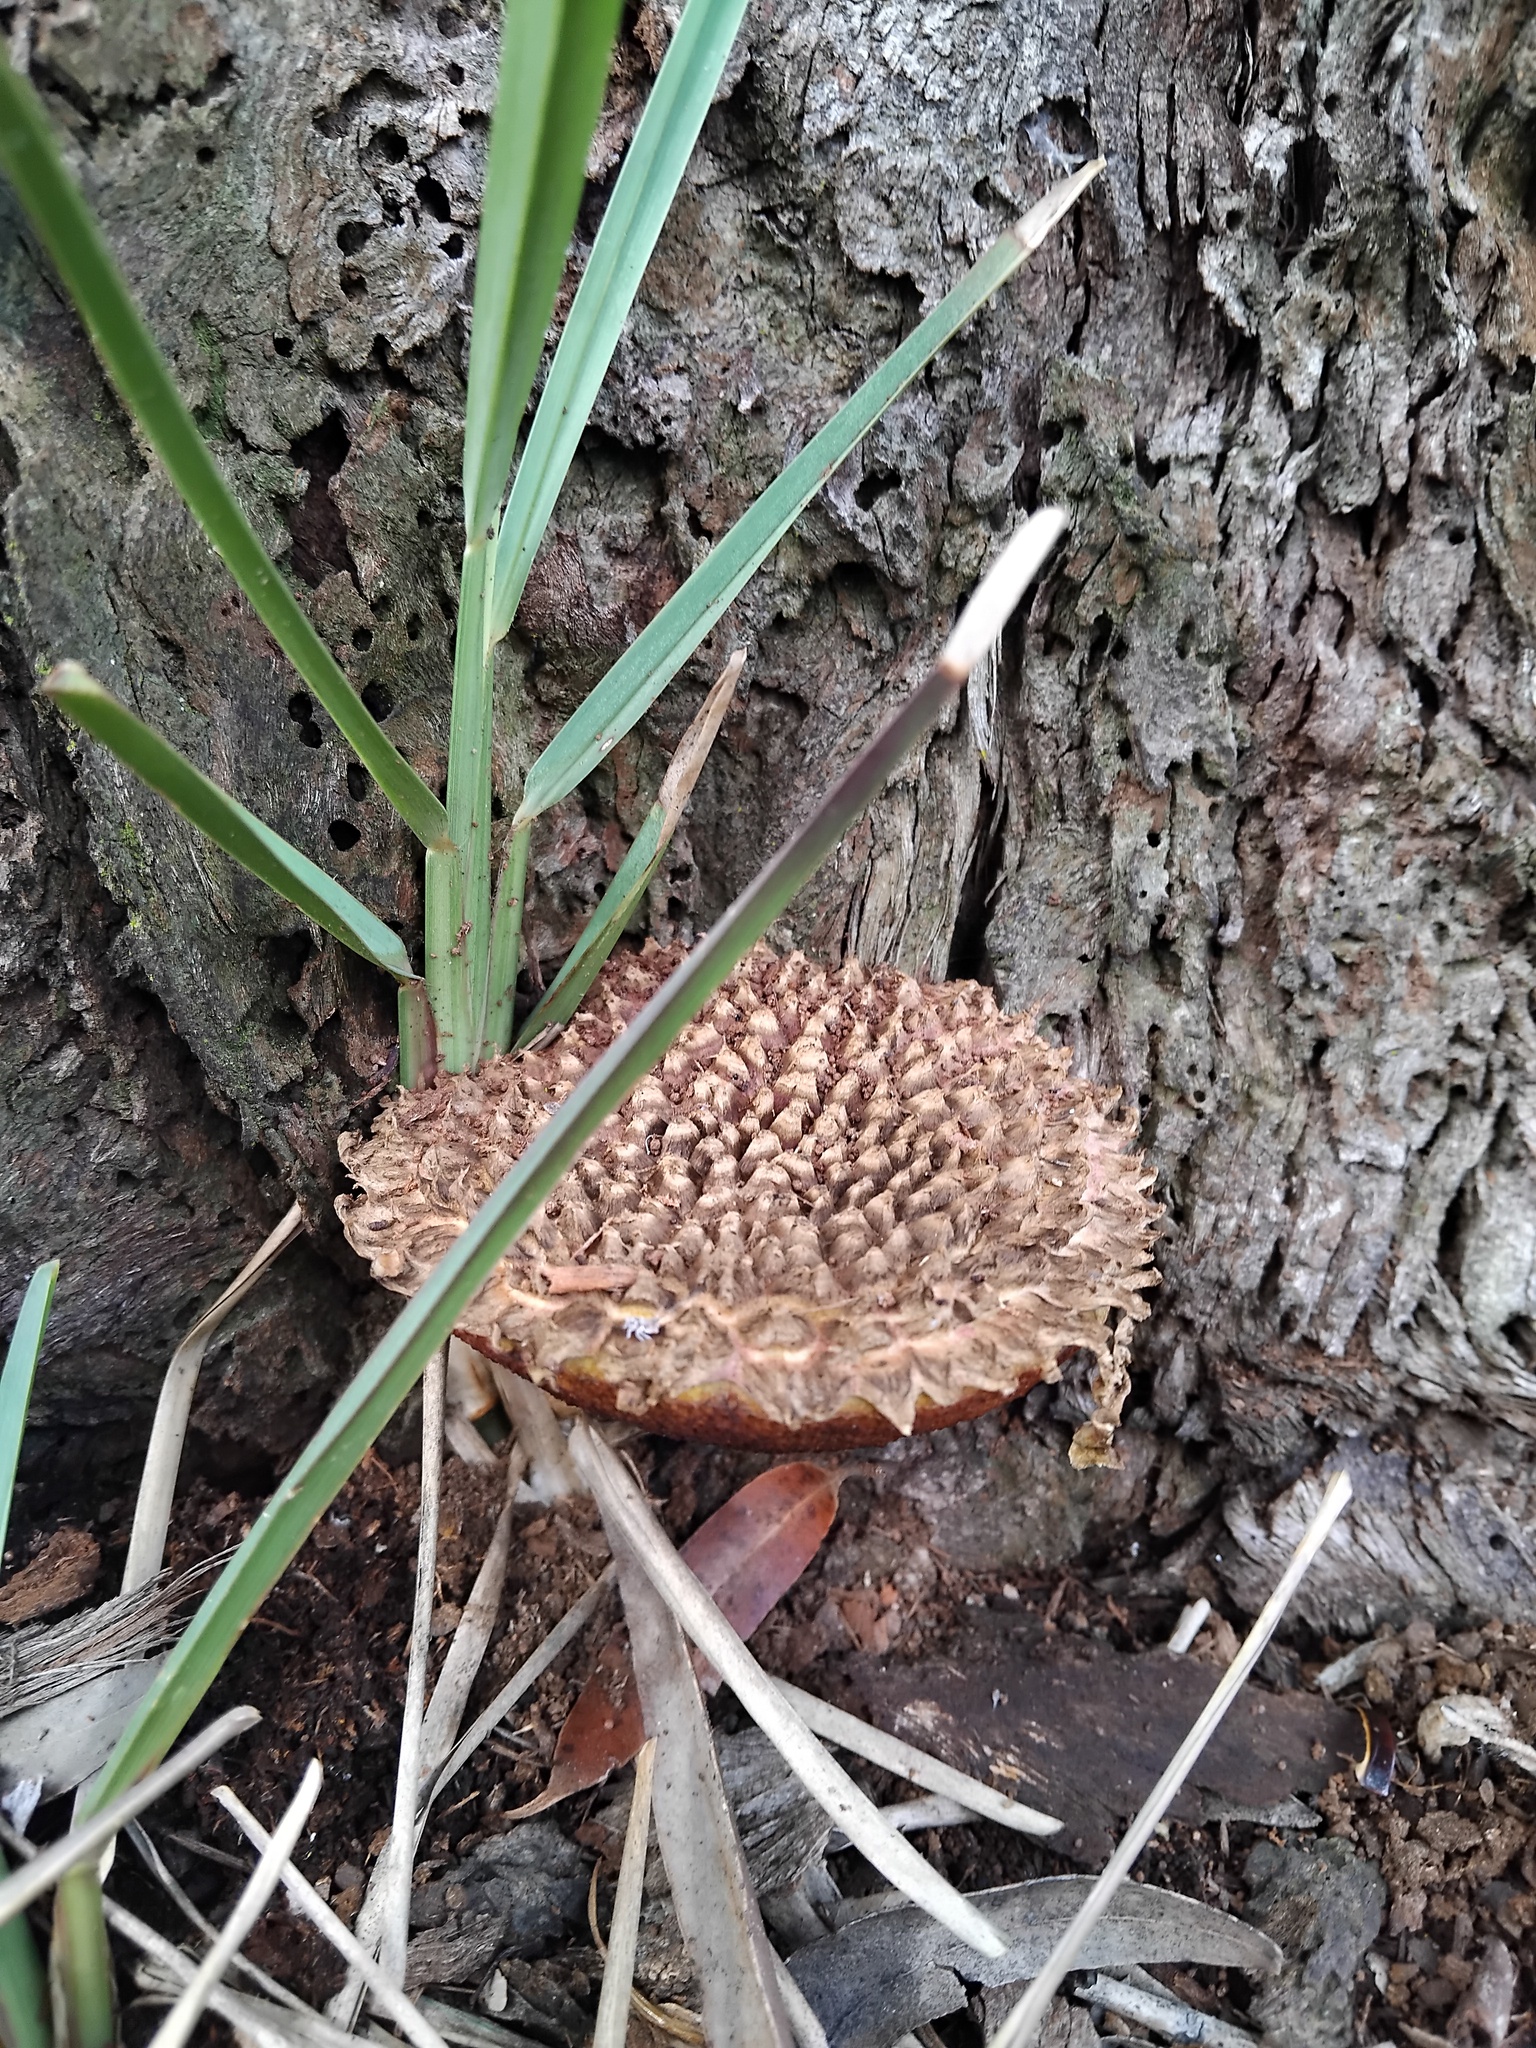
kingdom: Fungi
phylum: Basidiomycota
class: Agaricomycetes
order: Boletales
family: Boletaceae
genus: Boletellus
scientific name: Boletellus deceptivus
